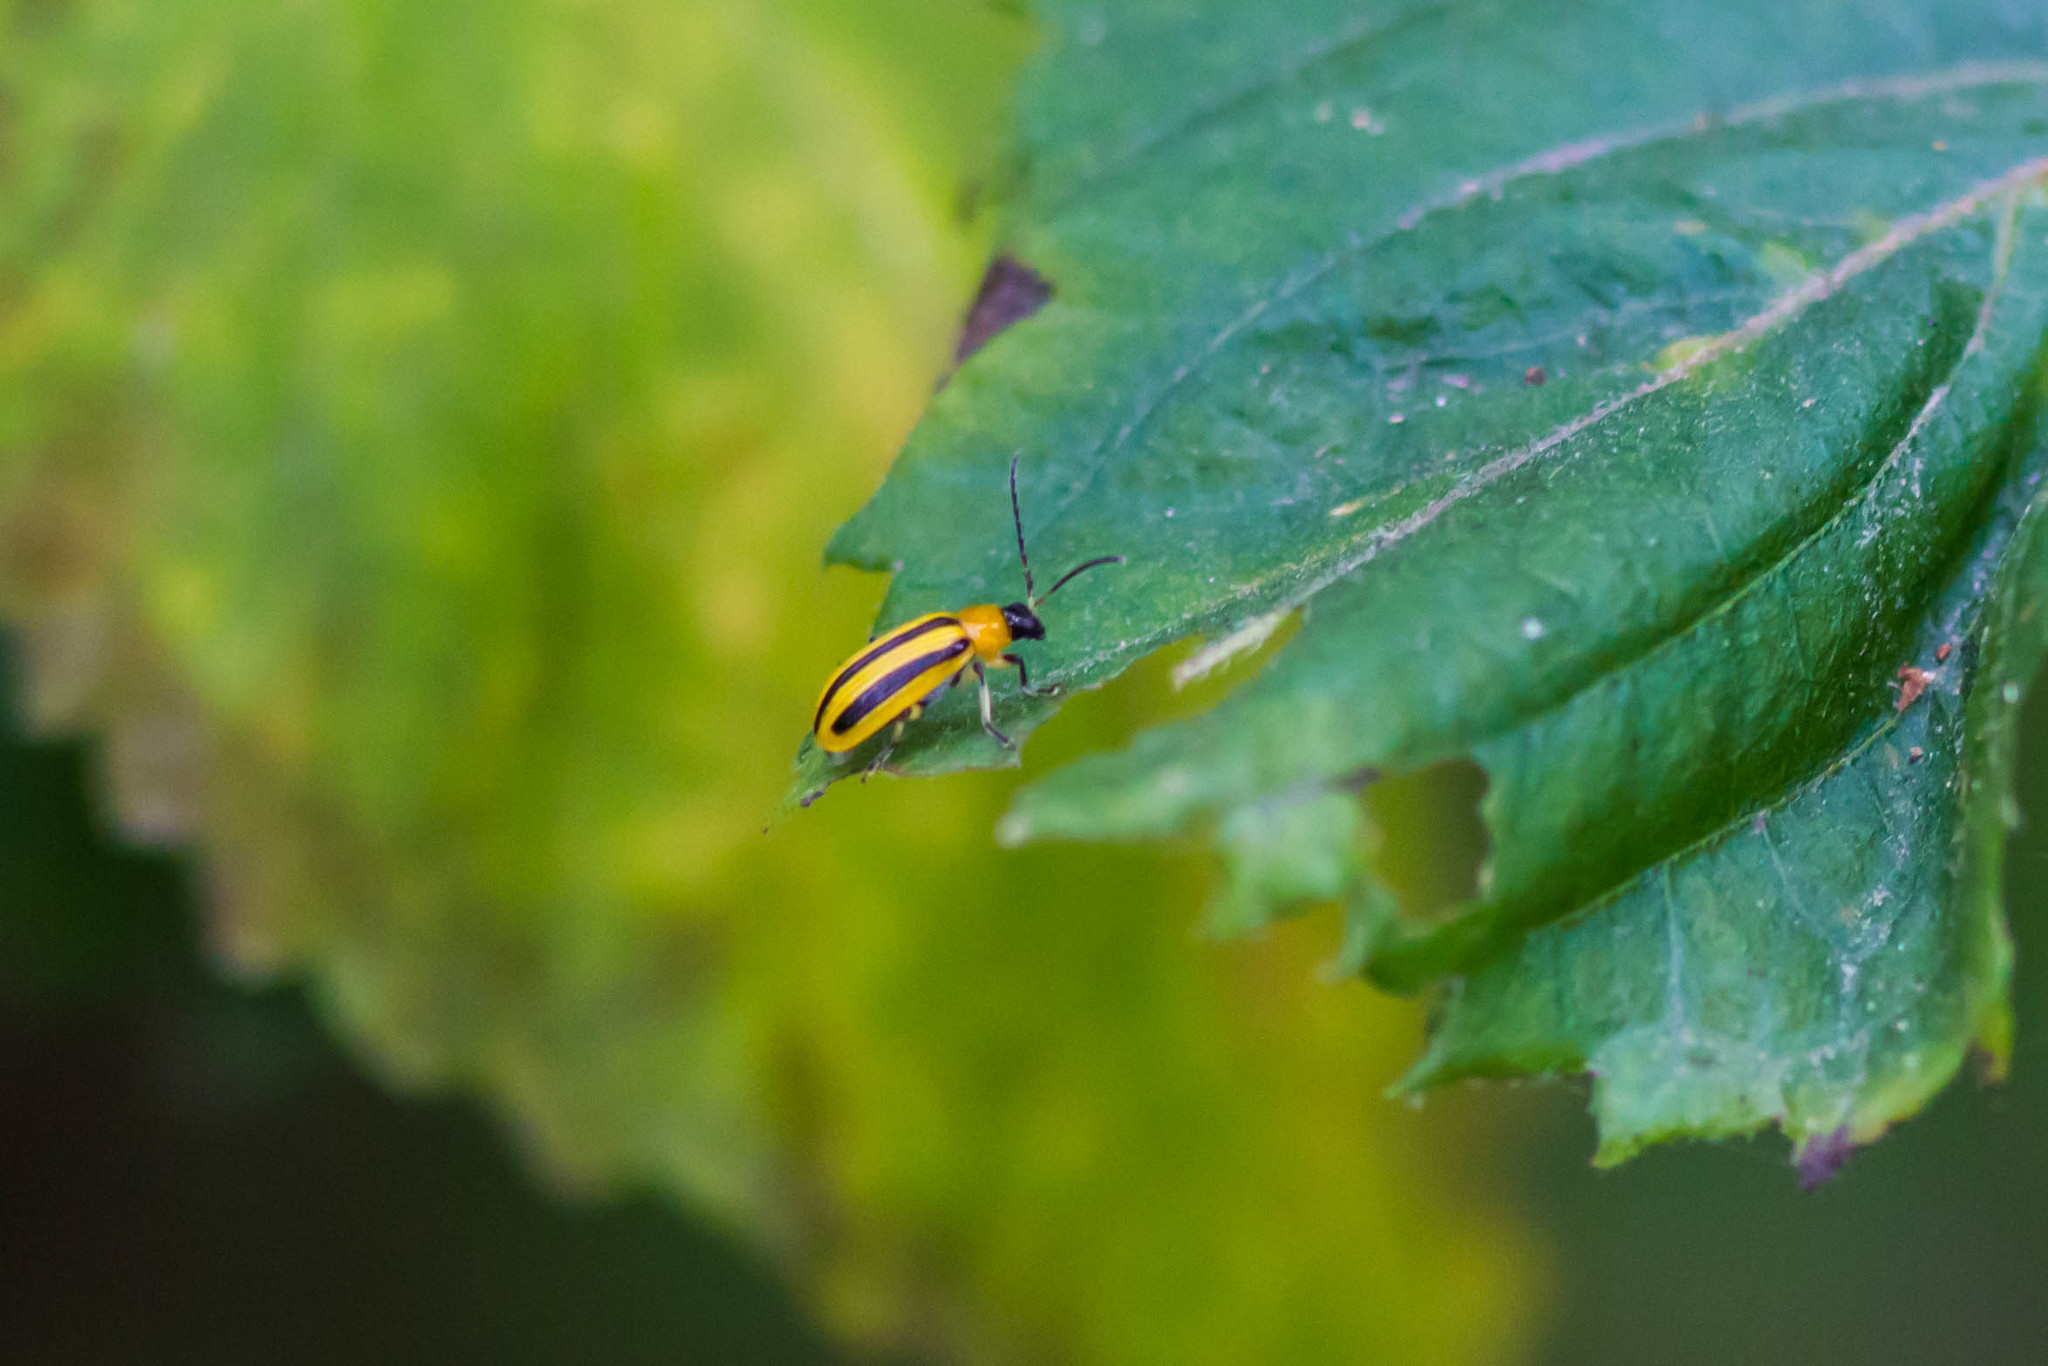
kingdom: Animalia
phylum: Arthropoda
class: Insecta
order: Coleoptera
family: Chrysomelidae
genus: Acalymma
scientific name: Acalymma vittatum
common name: Striped cucumber beetle
